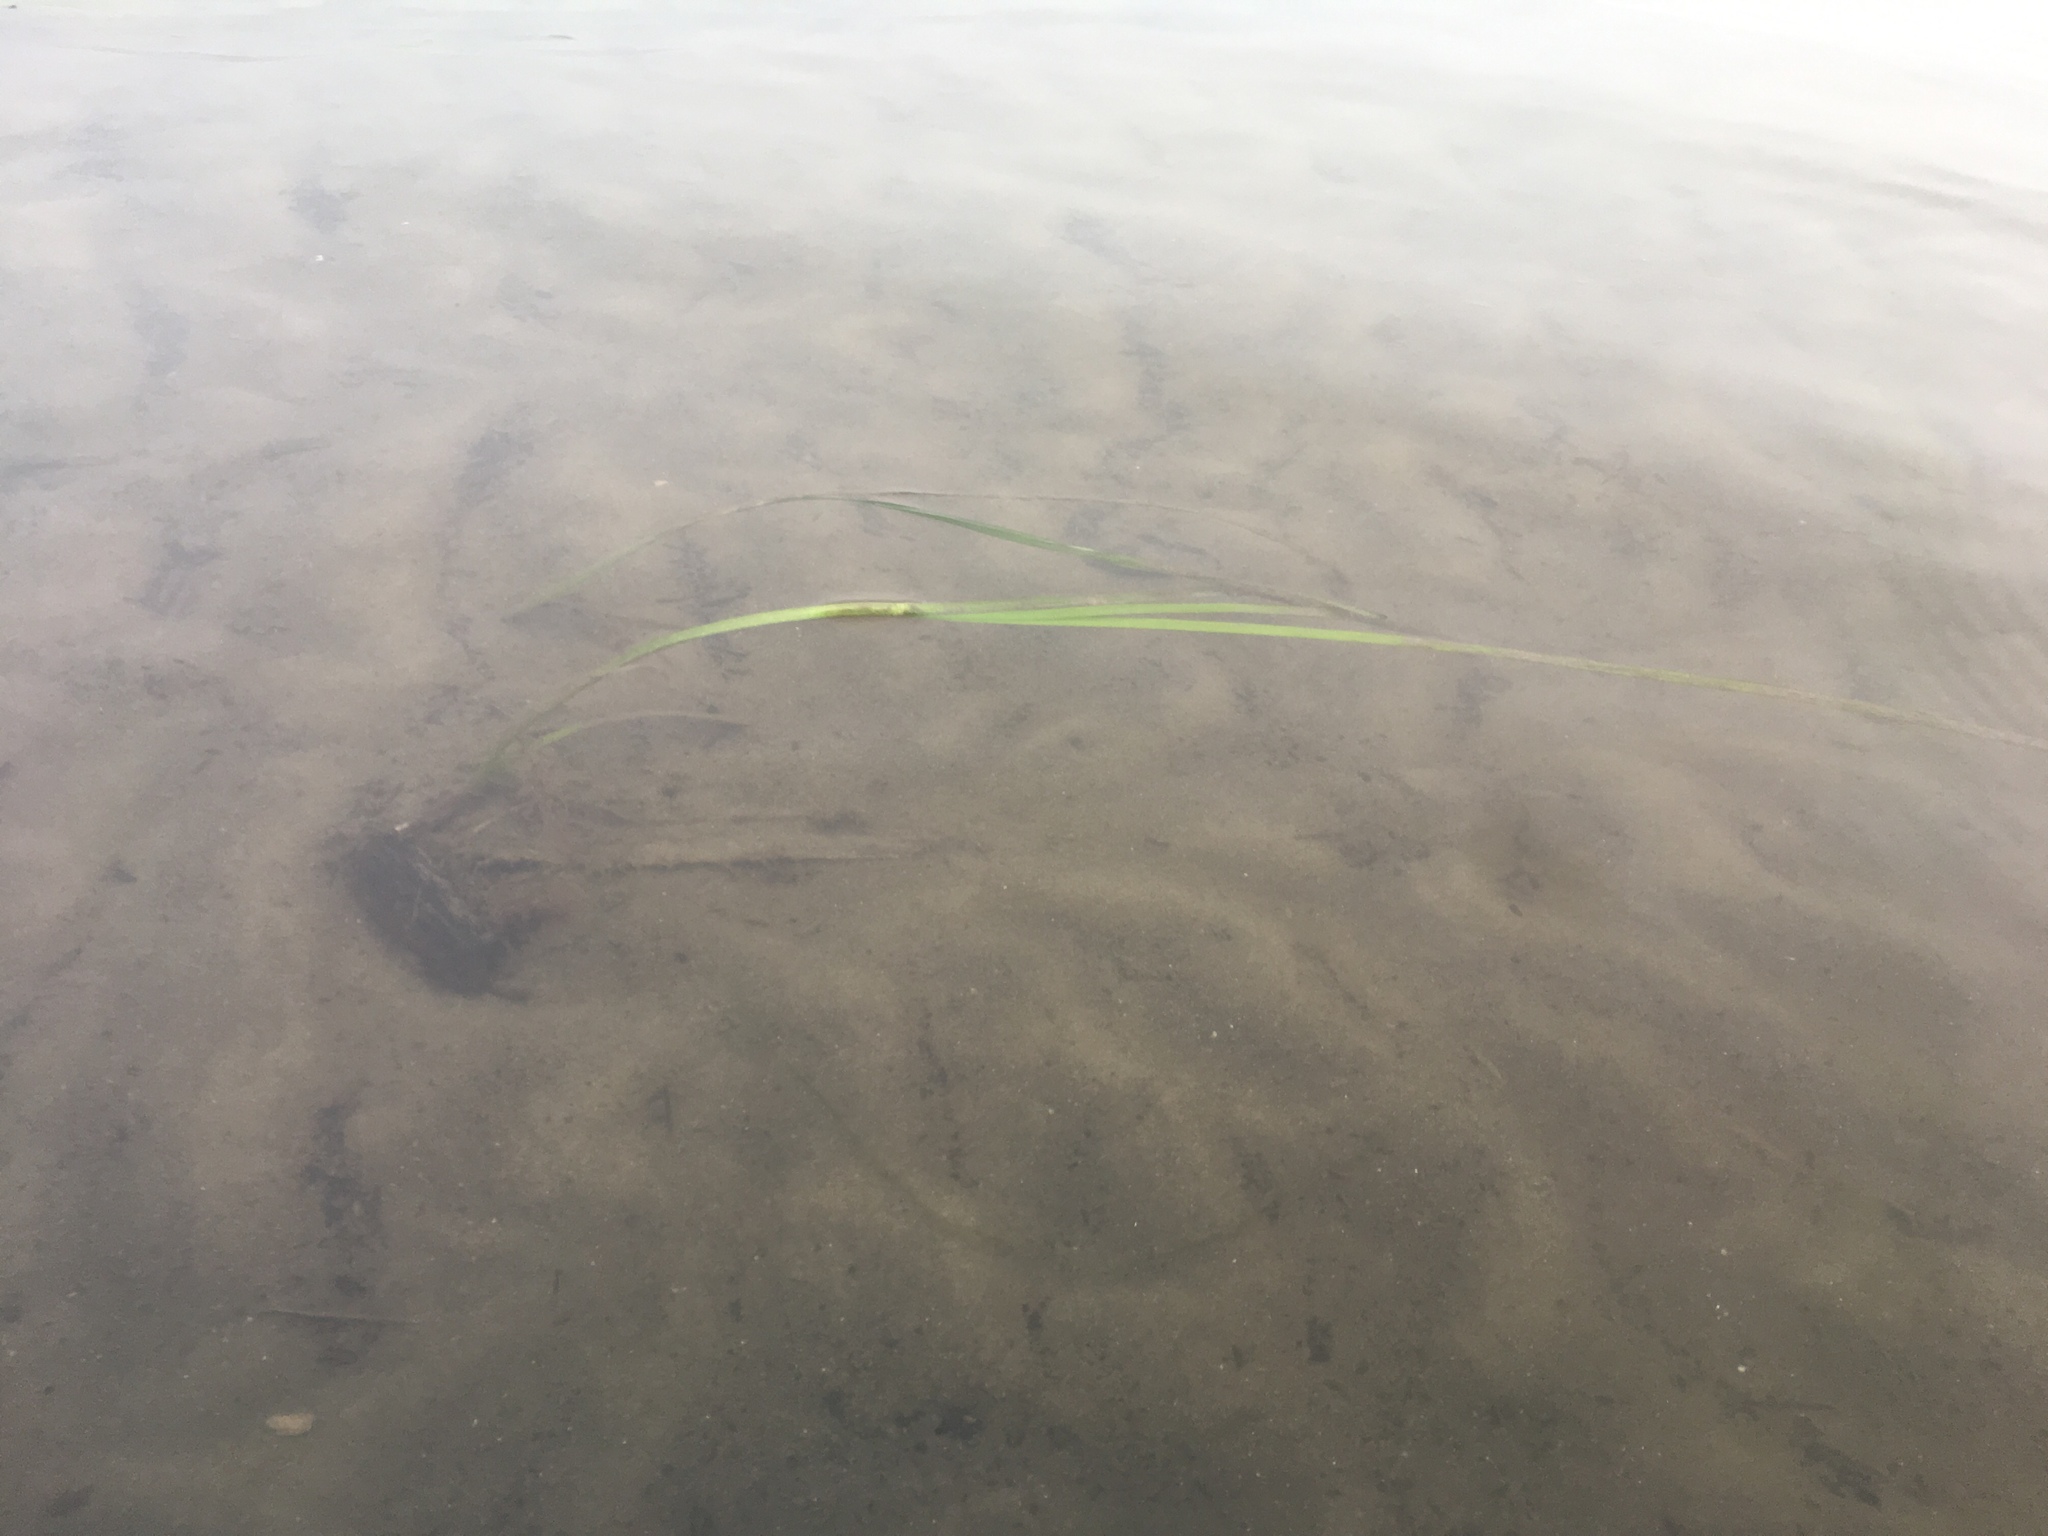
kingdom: Plantae
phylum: Tracheophyta
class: Liliopsida
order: Alismatales
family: Zosteraceae
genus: Zostera
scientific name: Zostera marina
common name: Eelgrass
